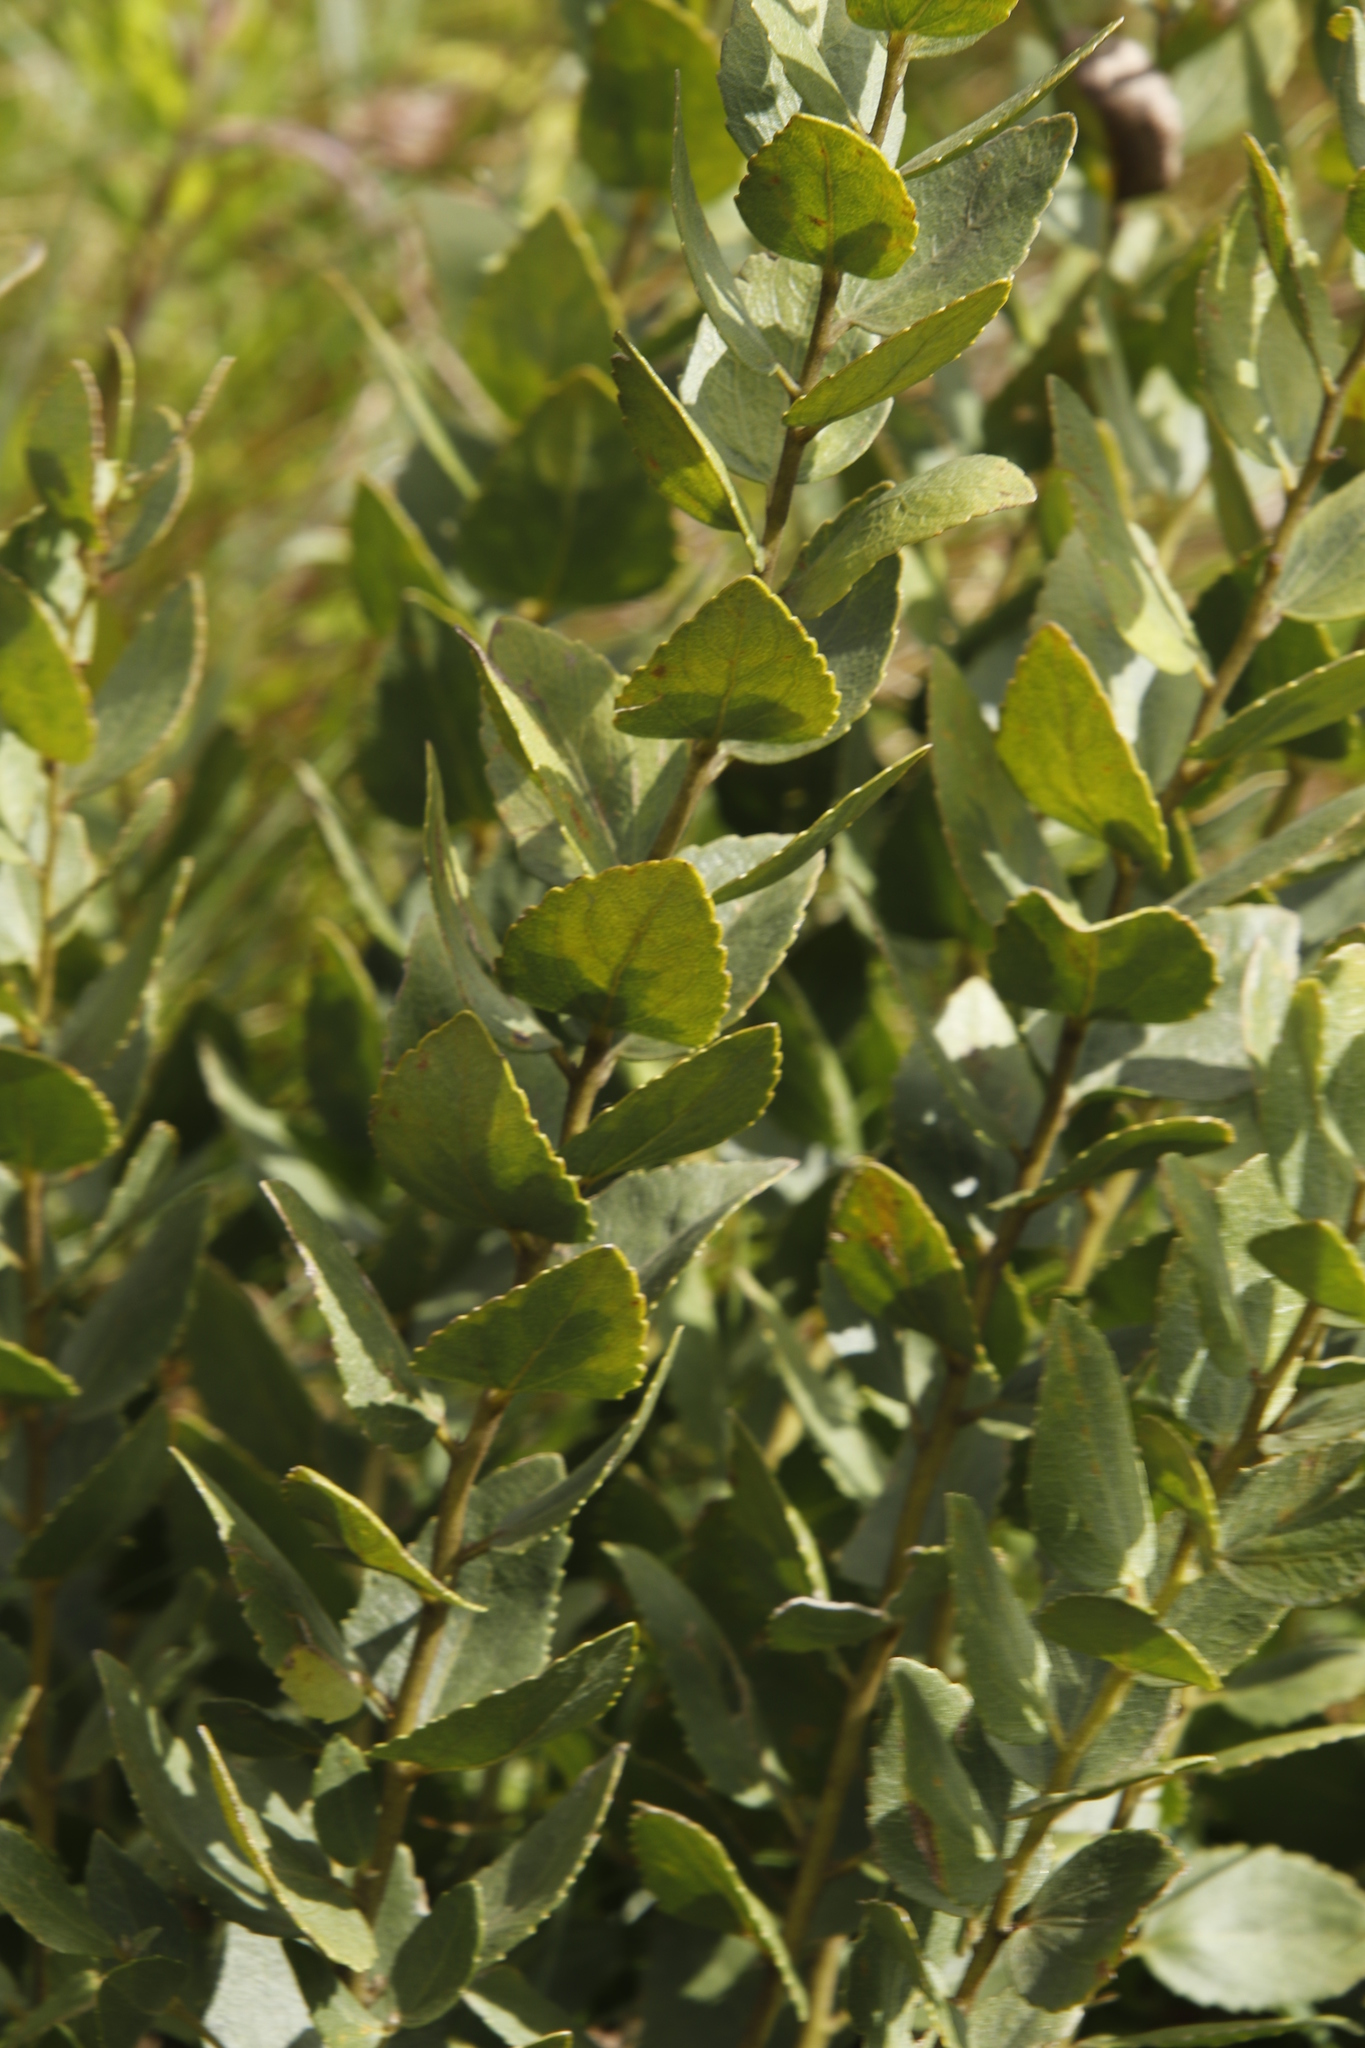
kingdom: Plantae
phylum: Tracheophyta
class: Magnoliopsida
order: Asterales
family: Asteraceae
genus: Stomatanthes
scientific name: Stomatanthes africanus
